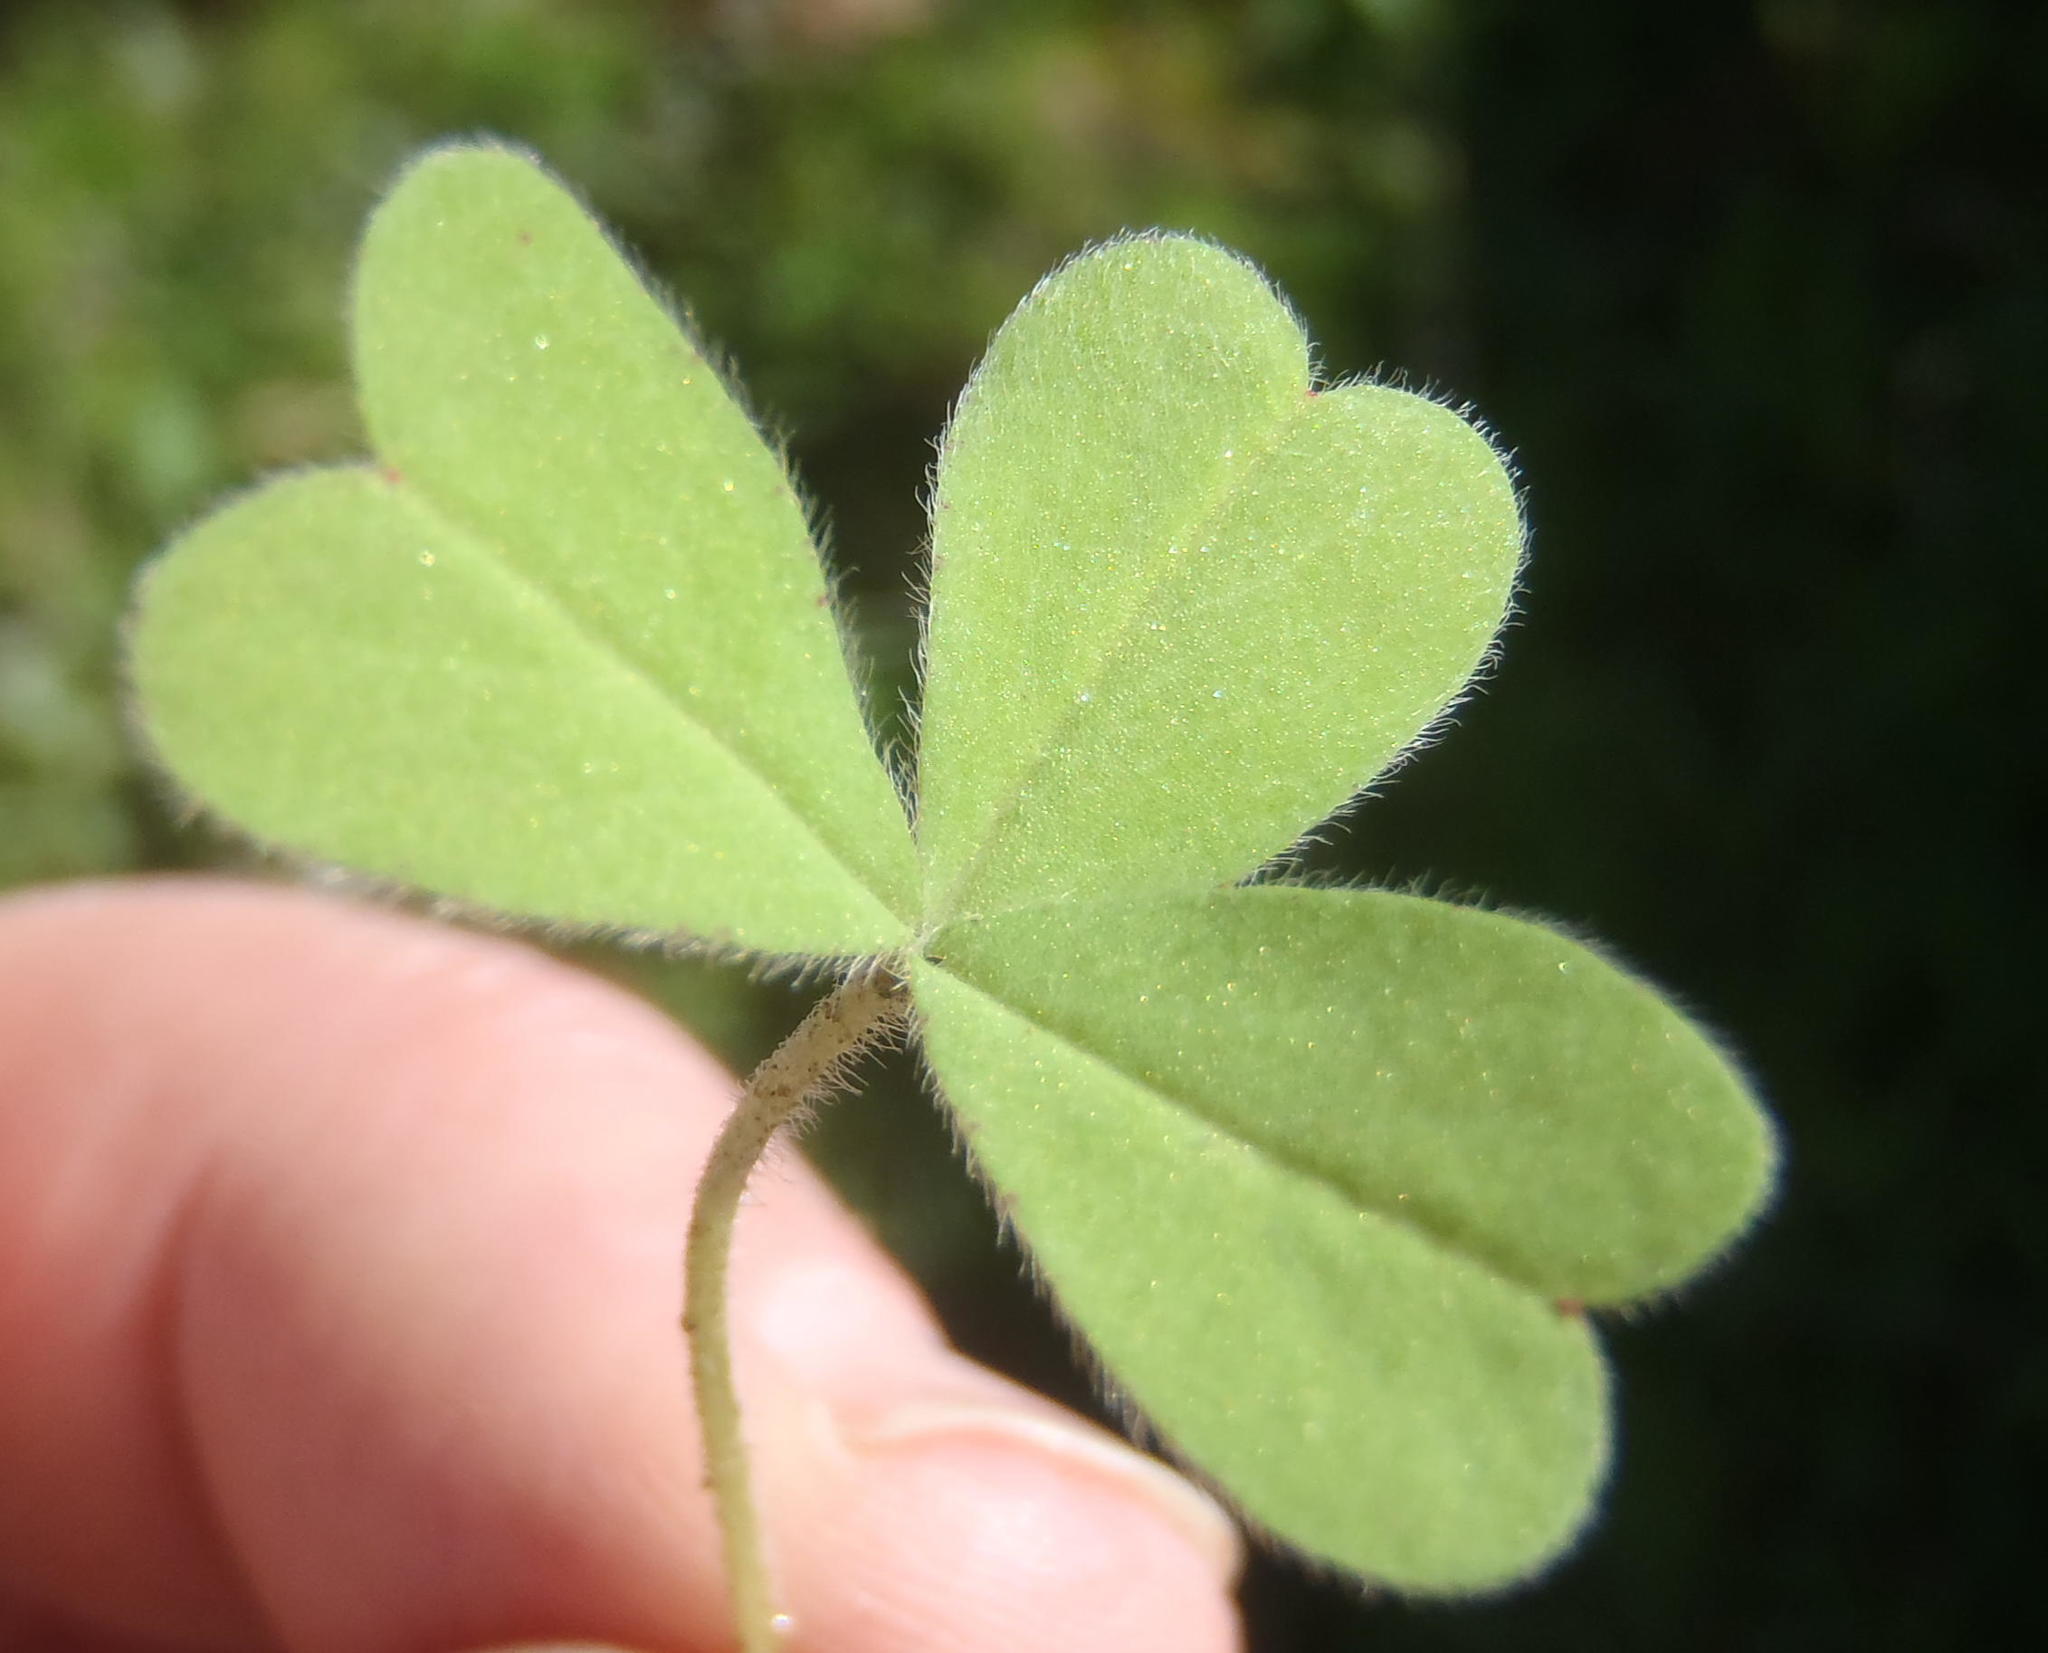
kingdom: Plantae
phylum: Tracheophyta
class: Magnoliopsida
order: Oxalidales
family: Oxalidaceae
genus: Oxalis
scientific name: Oxalis obtusa
